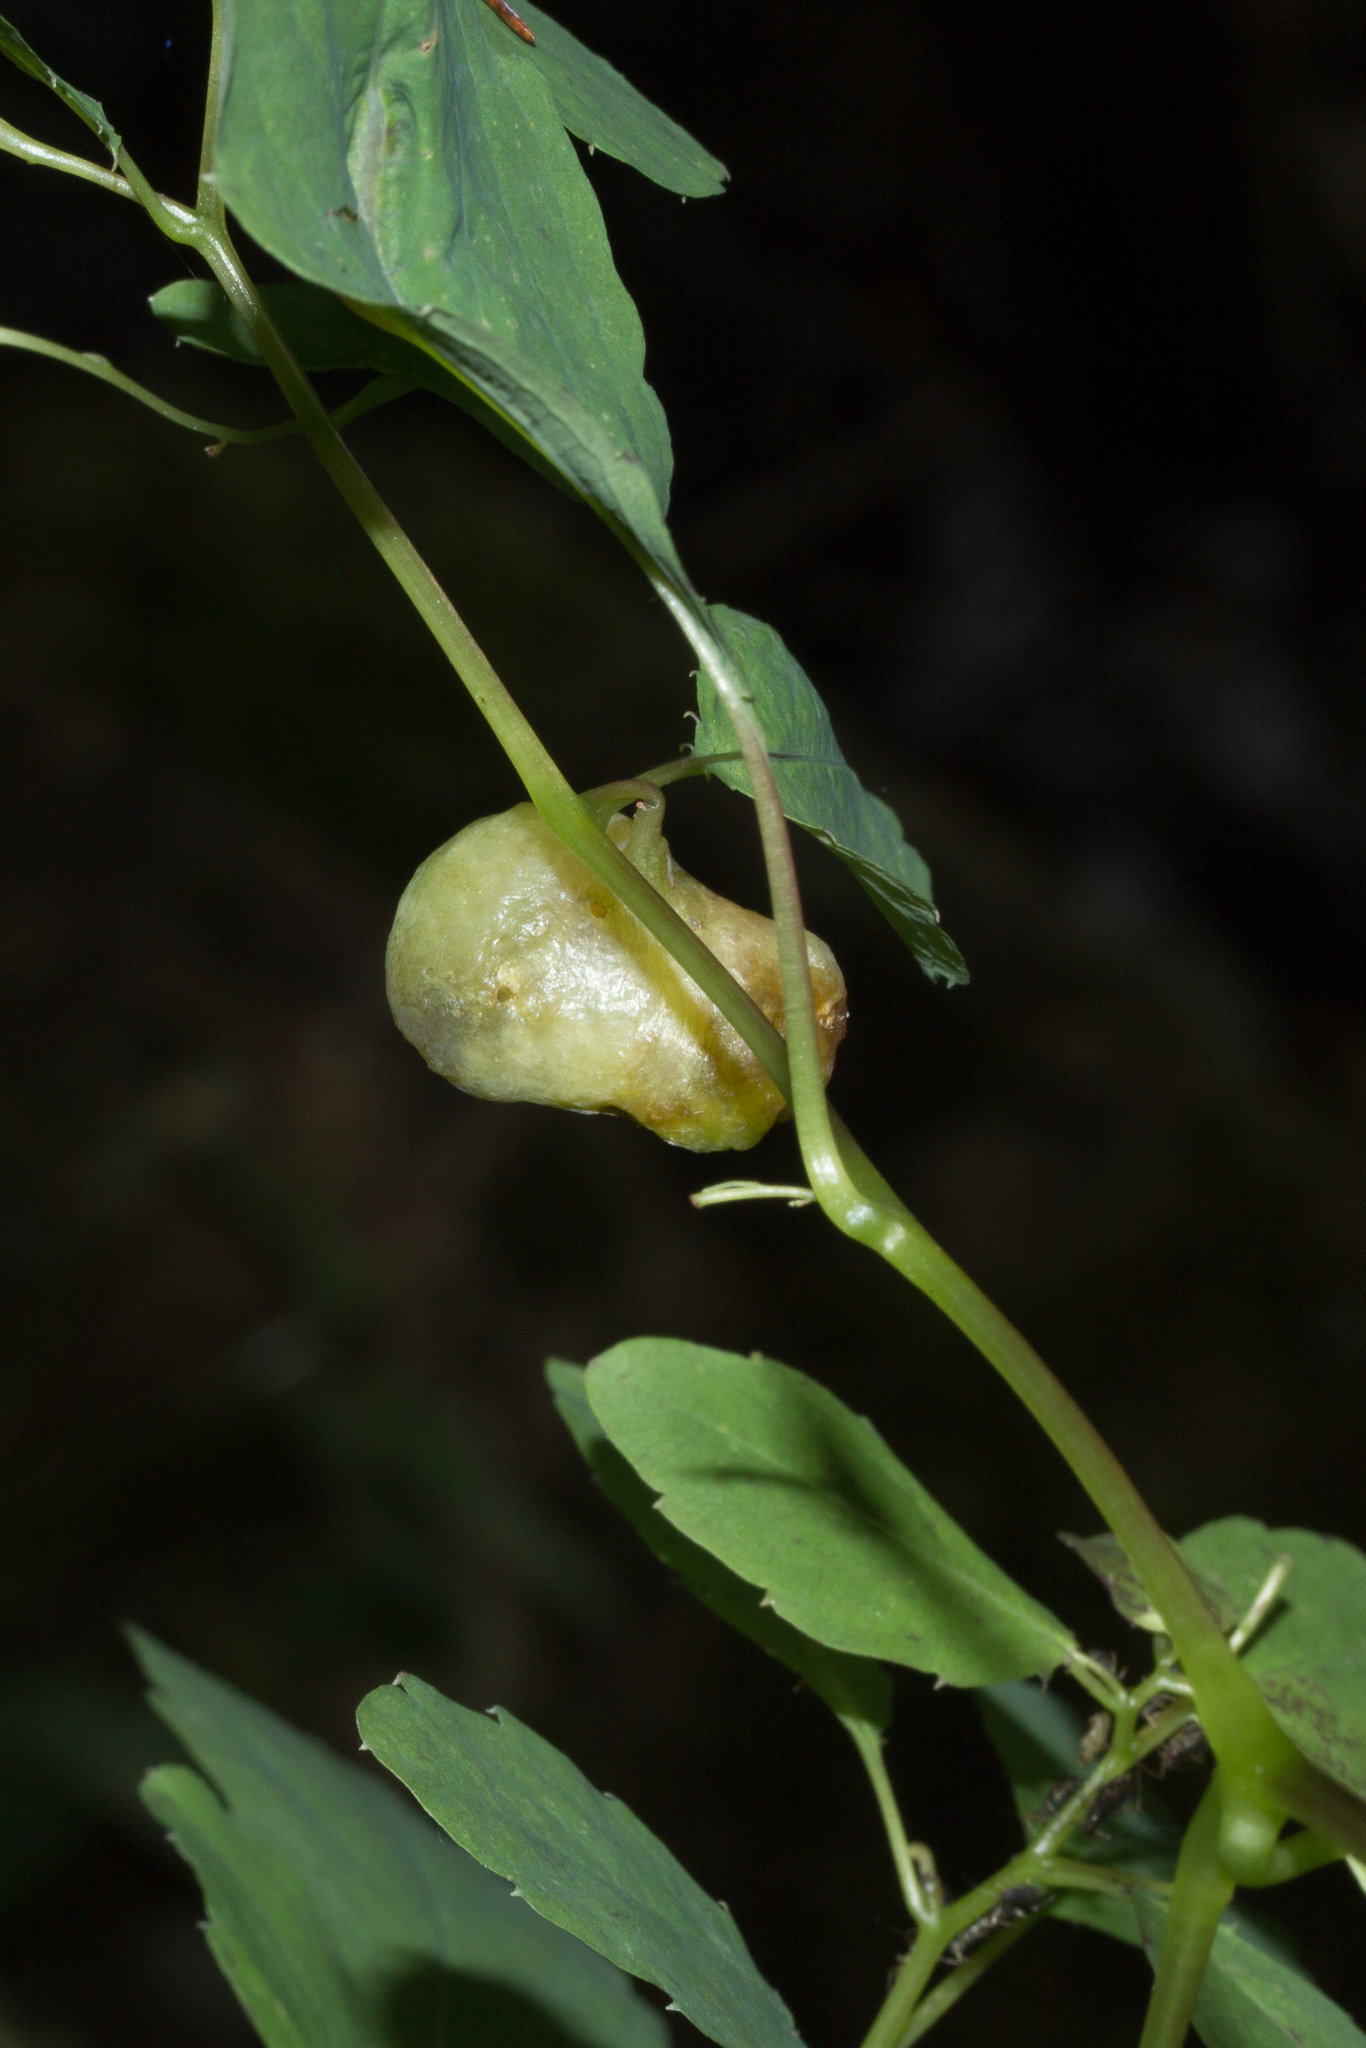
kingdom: Animalia
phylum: Arthropoda
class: Insecta
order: Diptera
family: Cecidomyiidae
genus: Schizomyia
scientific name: Schizomyia impatientis
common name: Jewelweed gall midge
